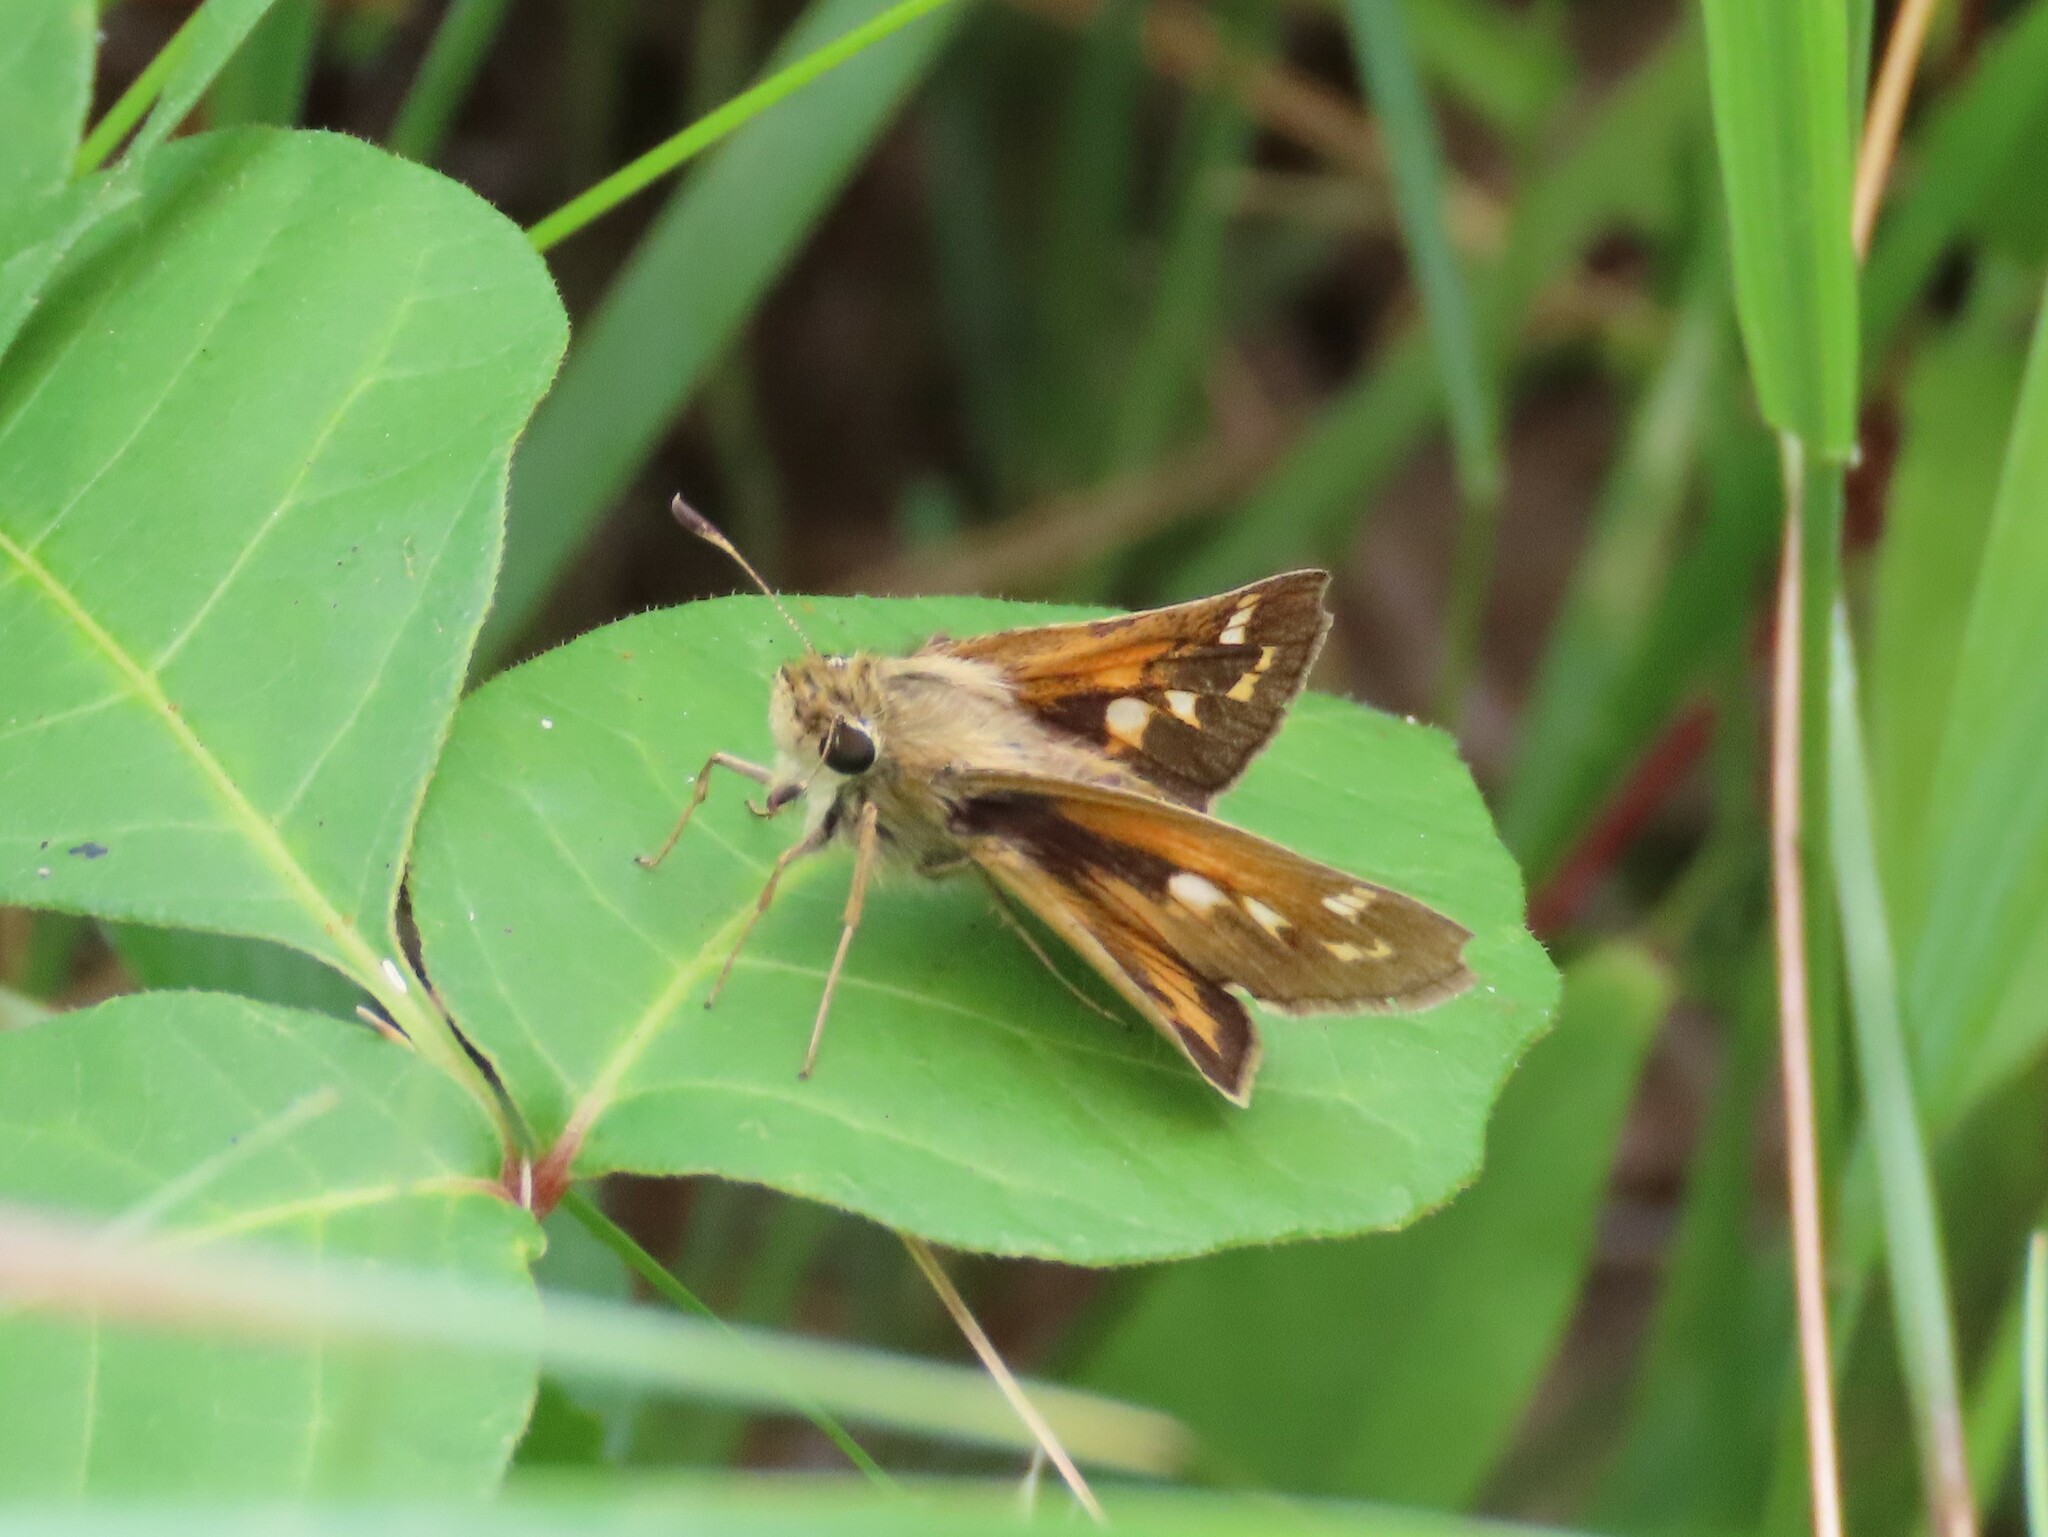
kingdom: Animalia
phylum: Arthropoda
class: Insecta
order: Lepidoptera
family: Hesperiidae
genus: Atalopedes
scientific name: Atalopedes
